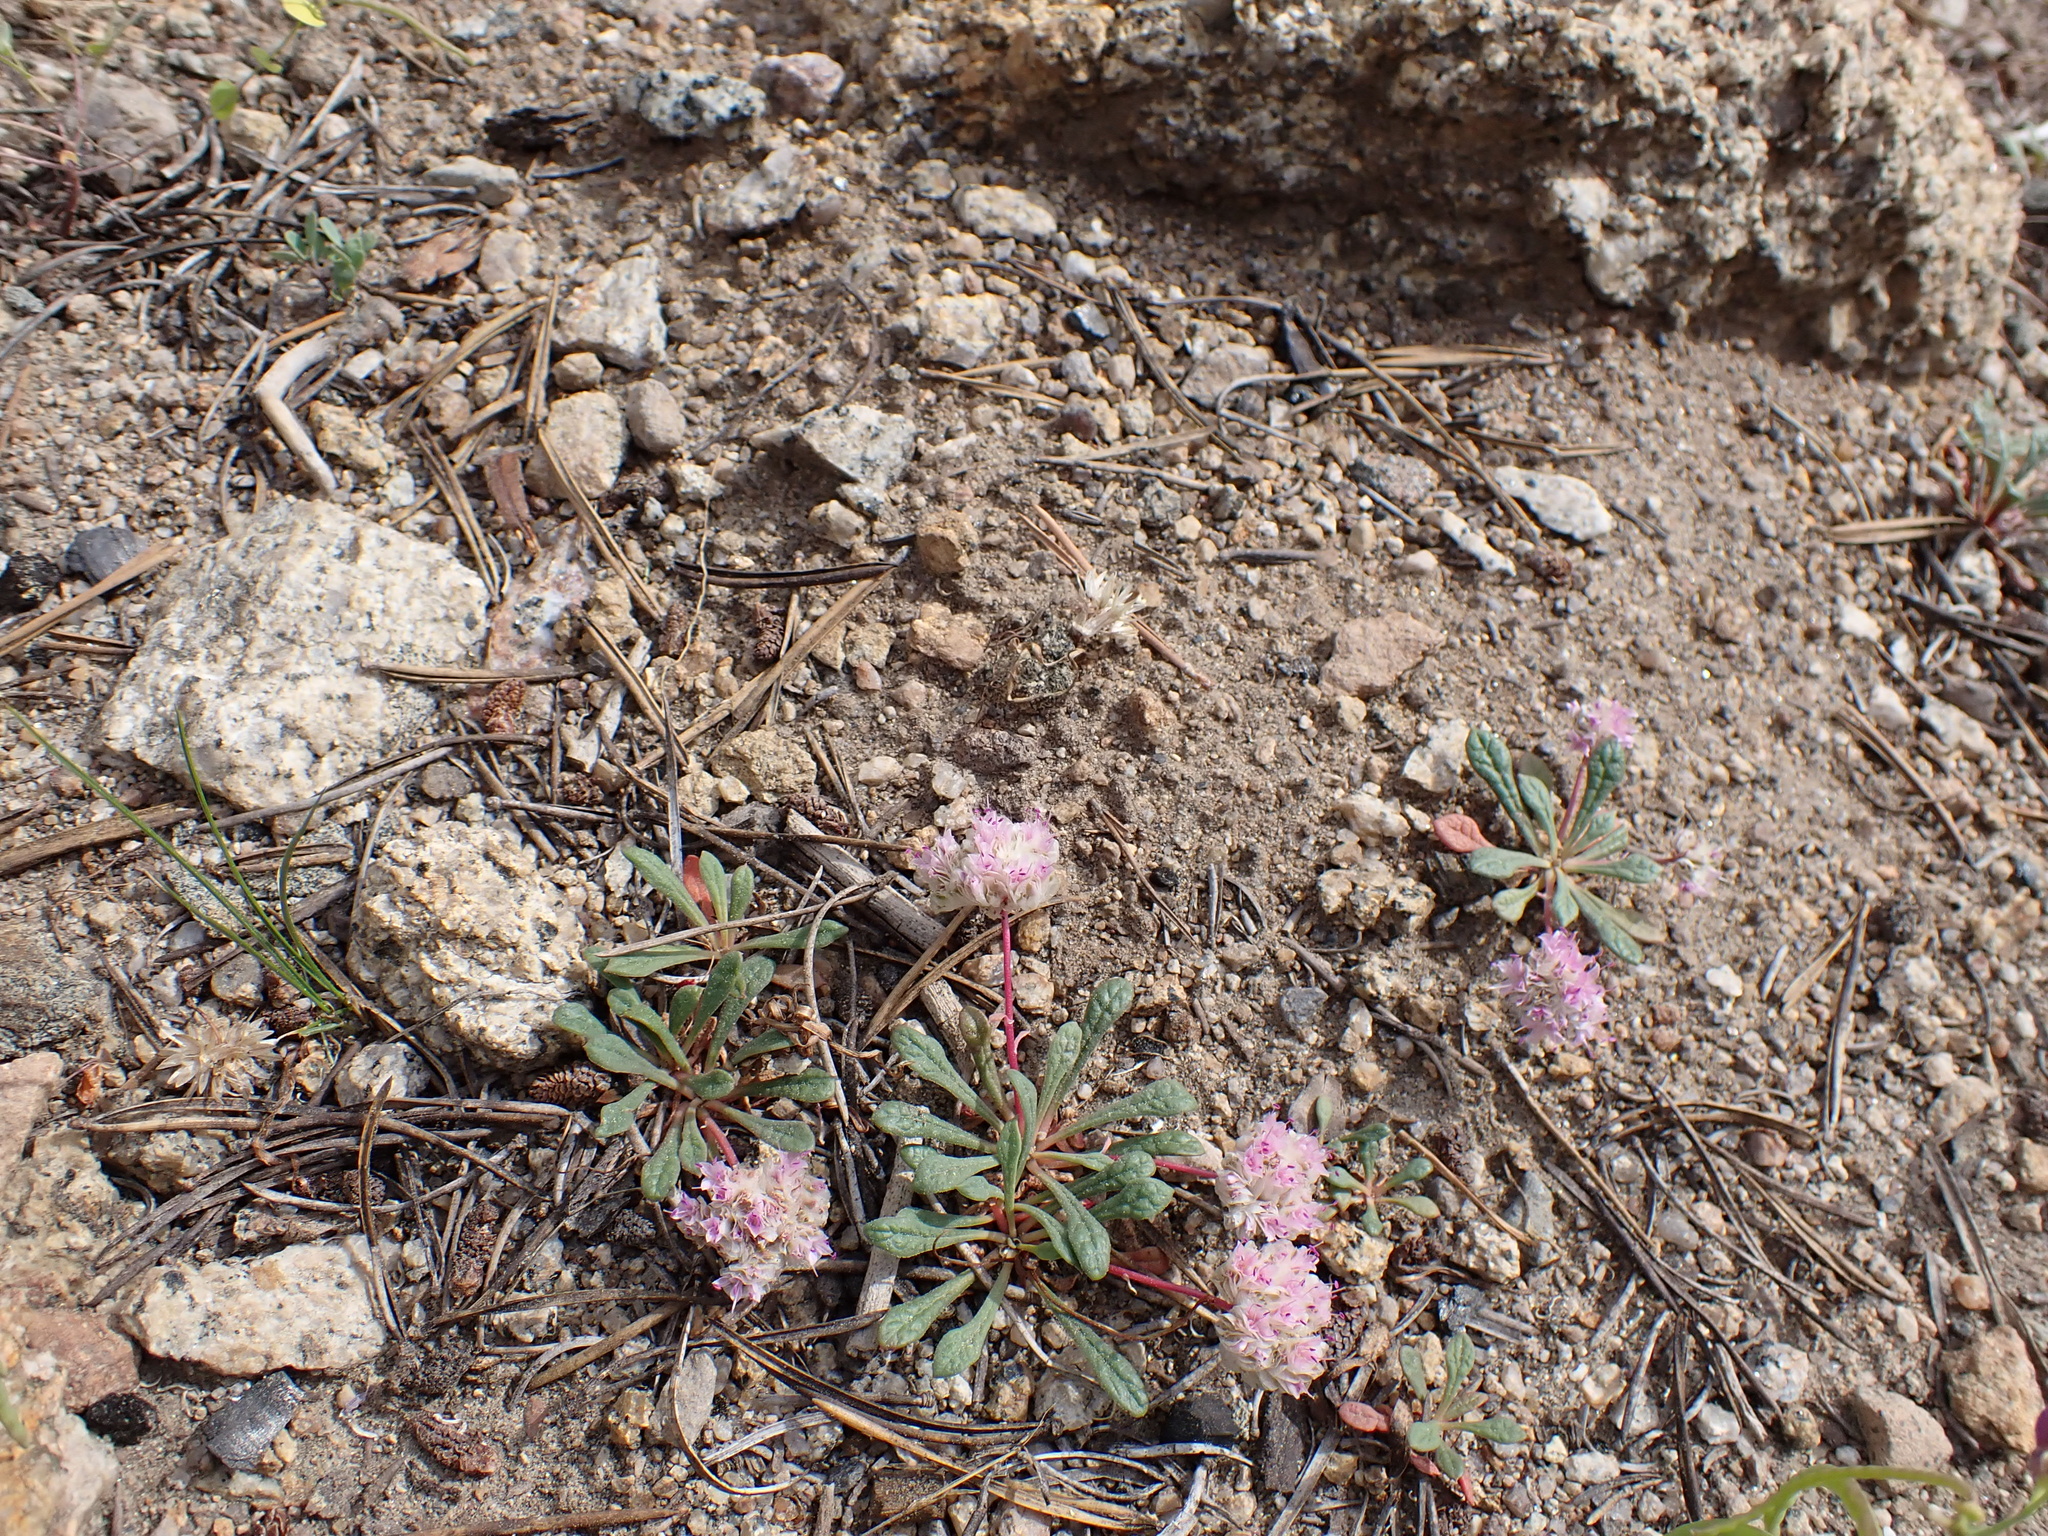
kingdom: Plantae
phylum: Tracheophyta
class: Magnoliopsida
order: Caryophyllales
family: Montiaceae
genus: Calyptridium
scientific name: Calyptridium monospermum
